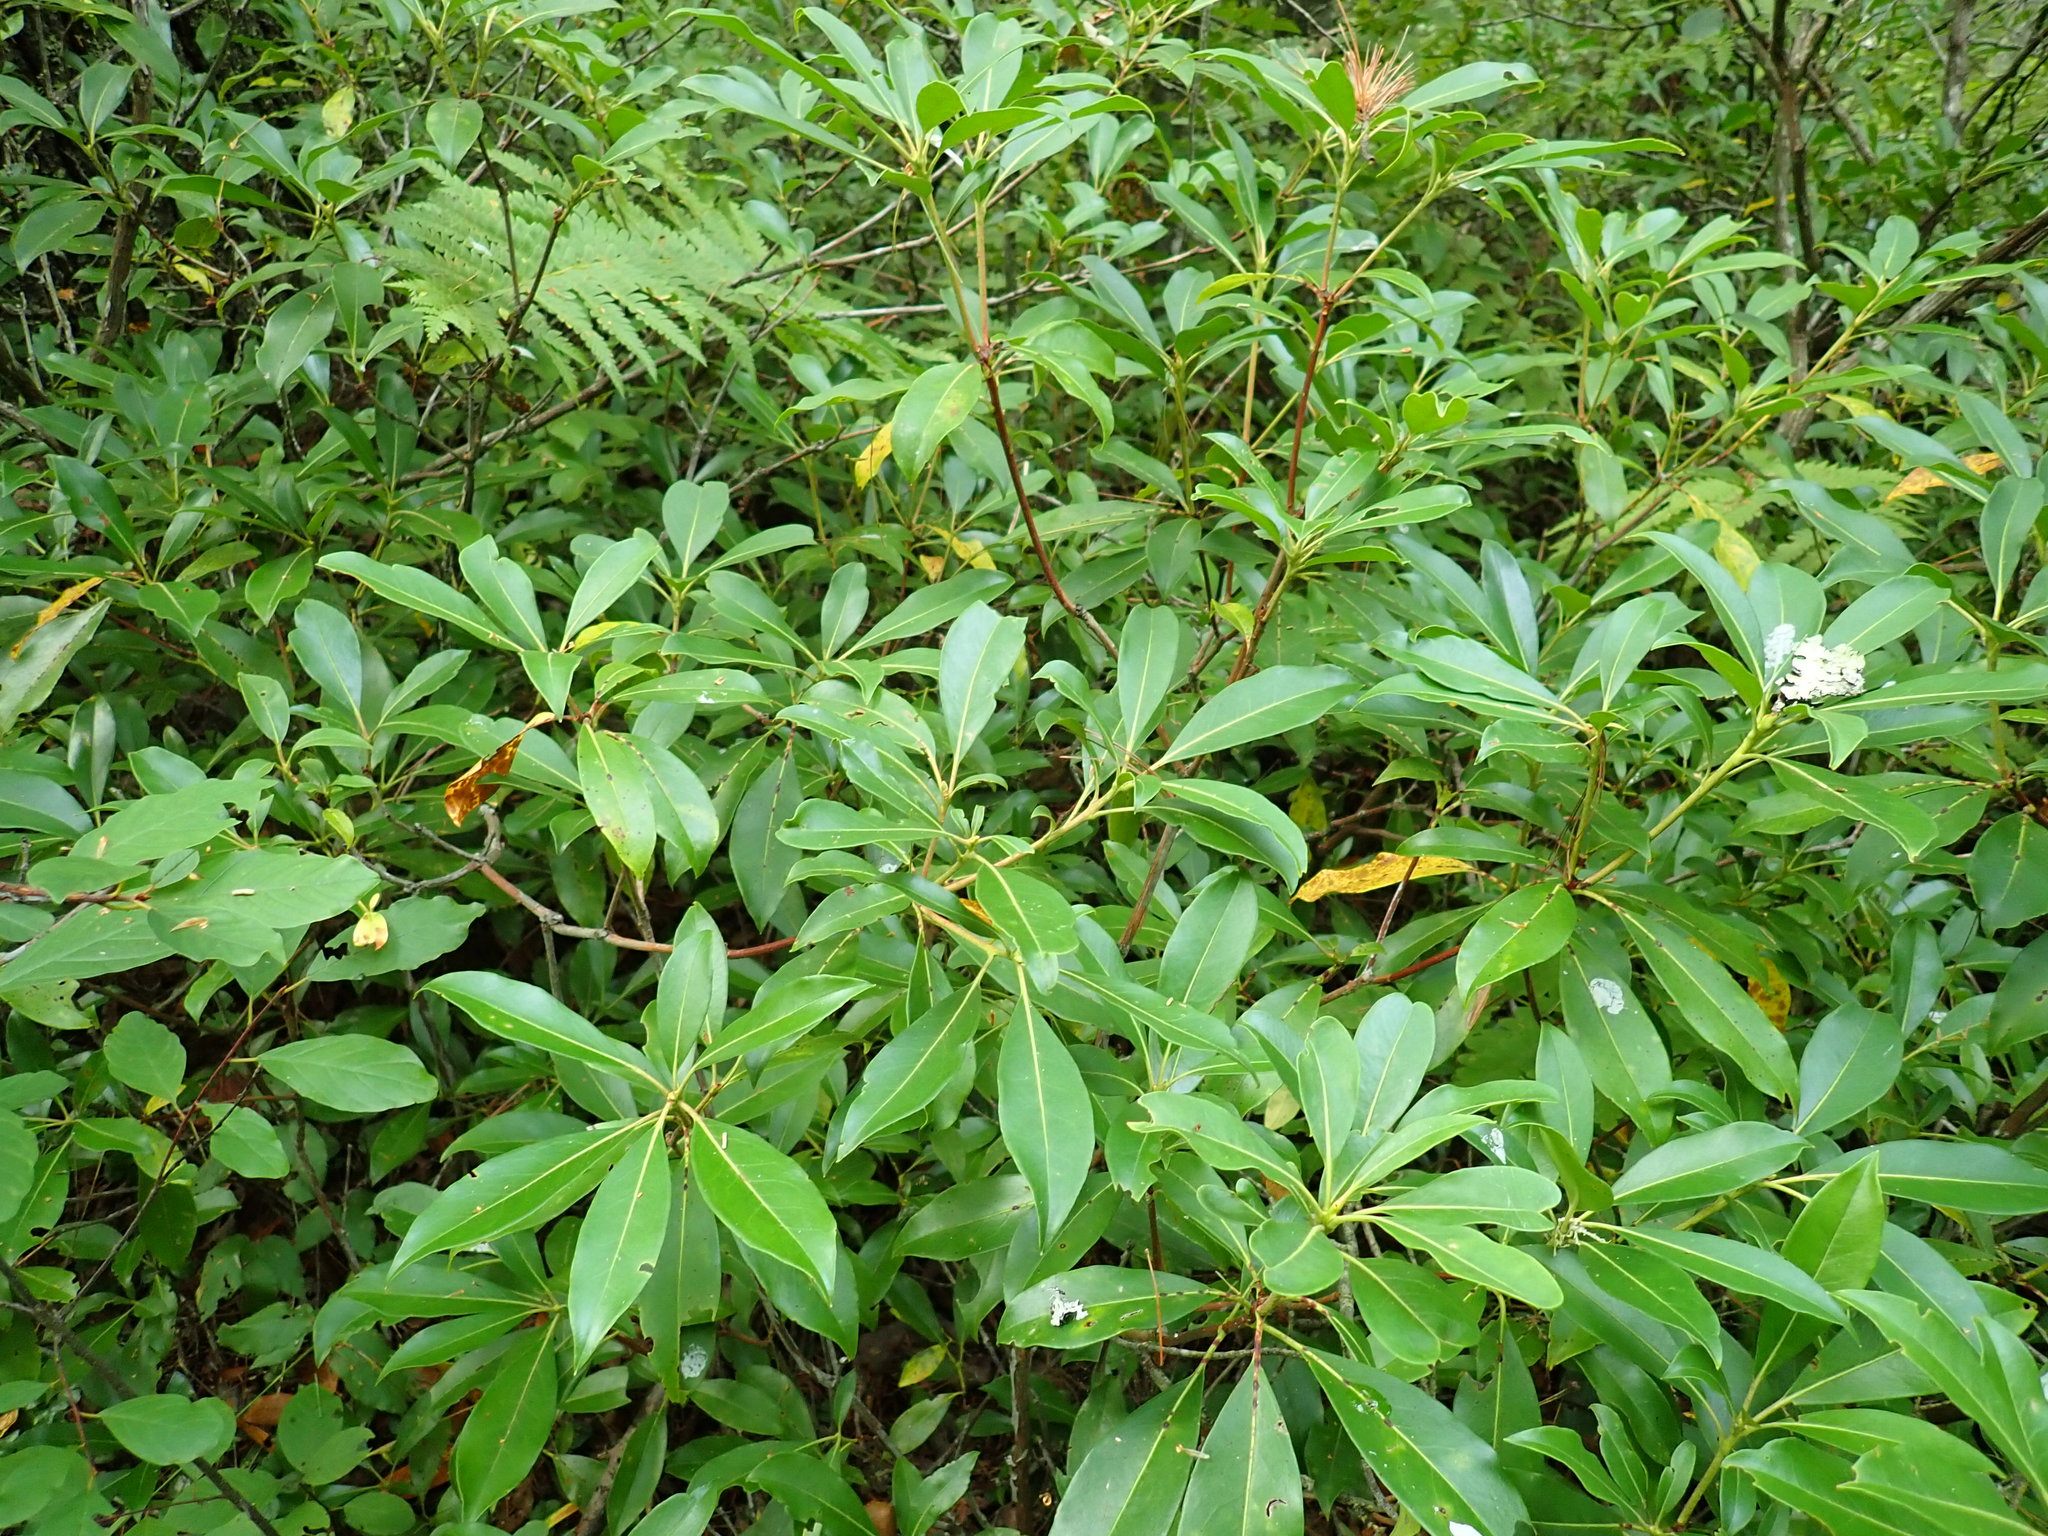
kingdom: Plantae
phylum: Tracheophyta
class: Magnoliopsida
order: Ericales
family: Ericaceae
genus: Kalmia
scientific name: Kalmia latifolia
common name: Mountain-laurel
